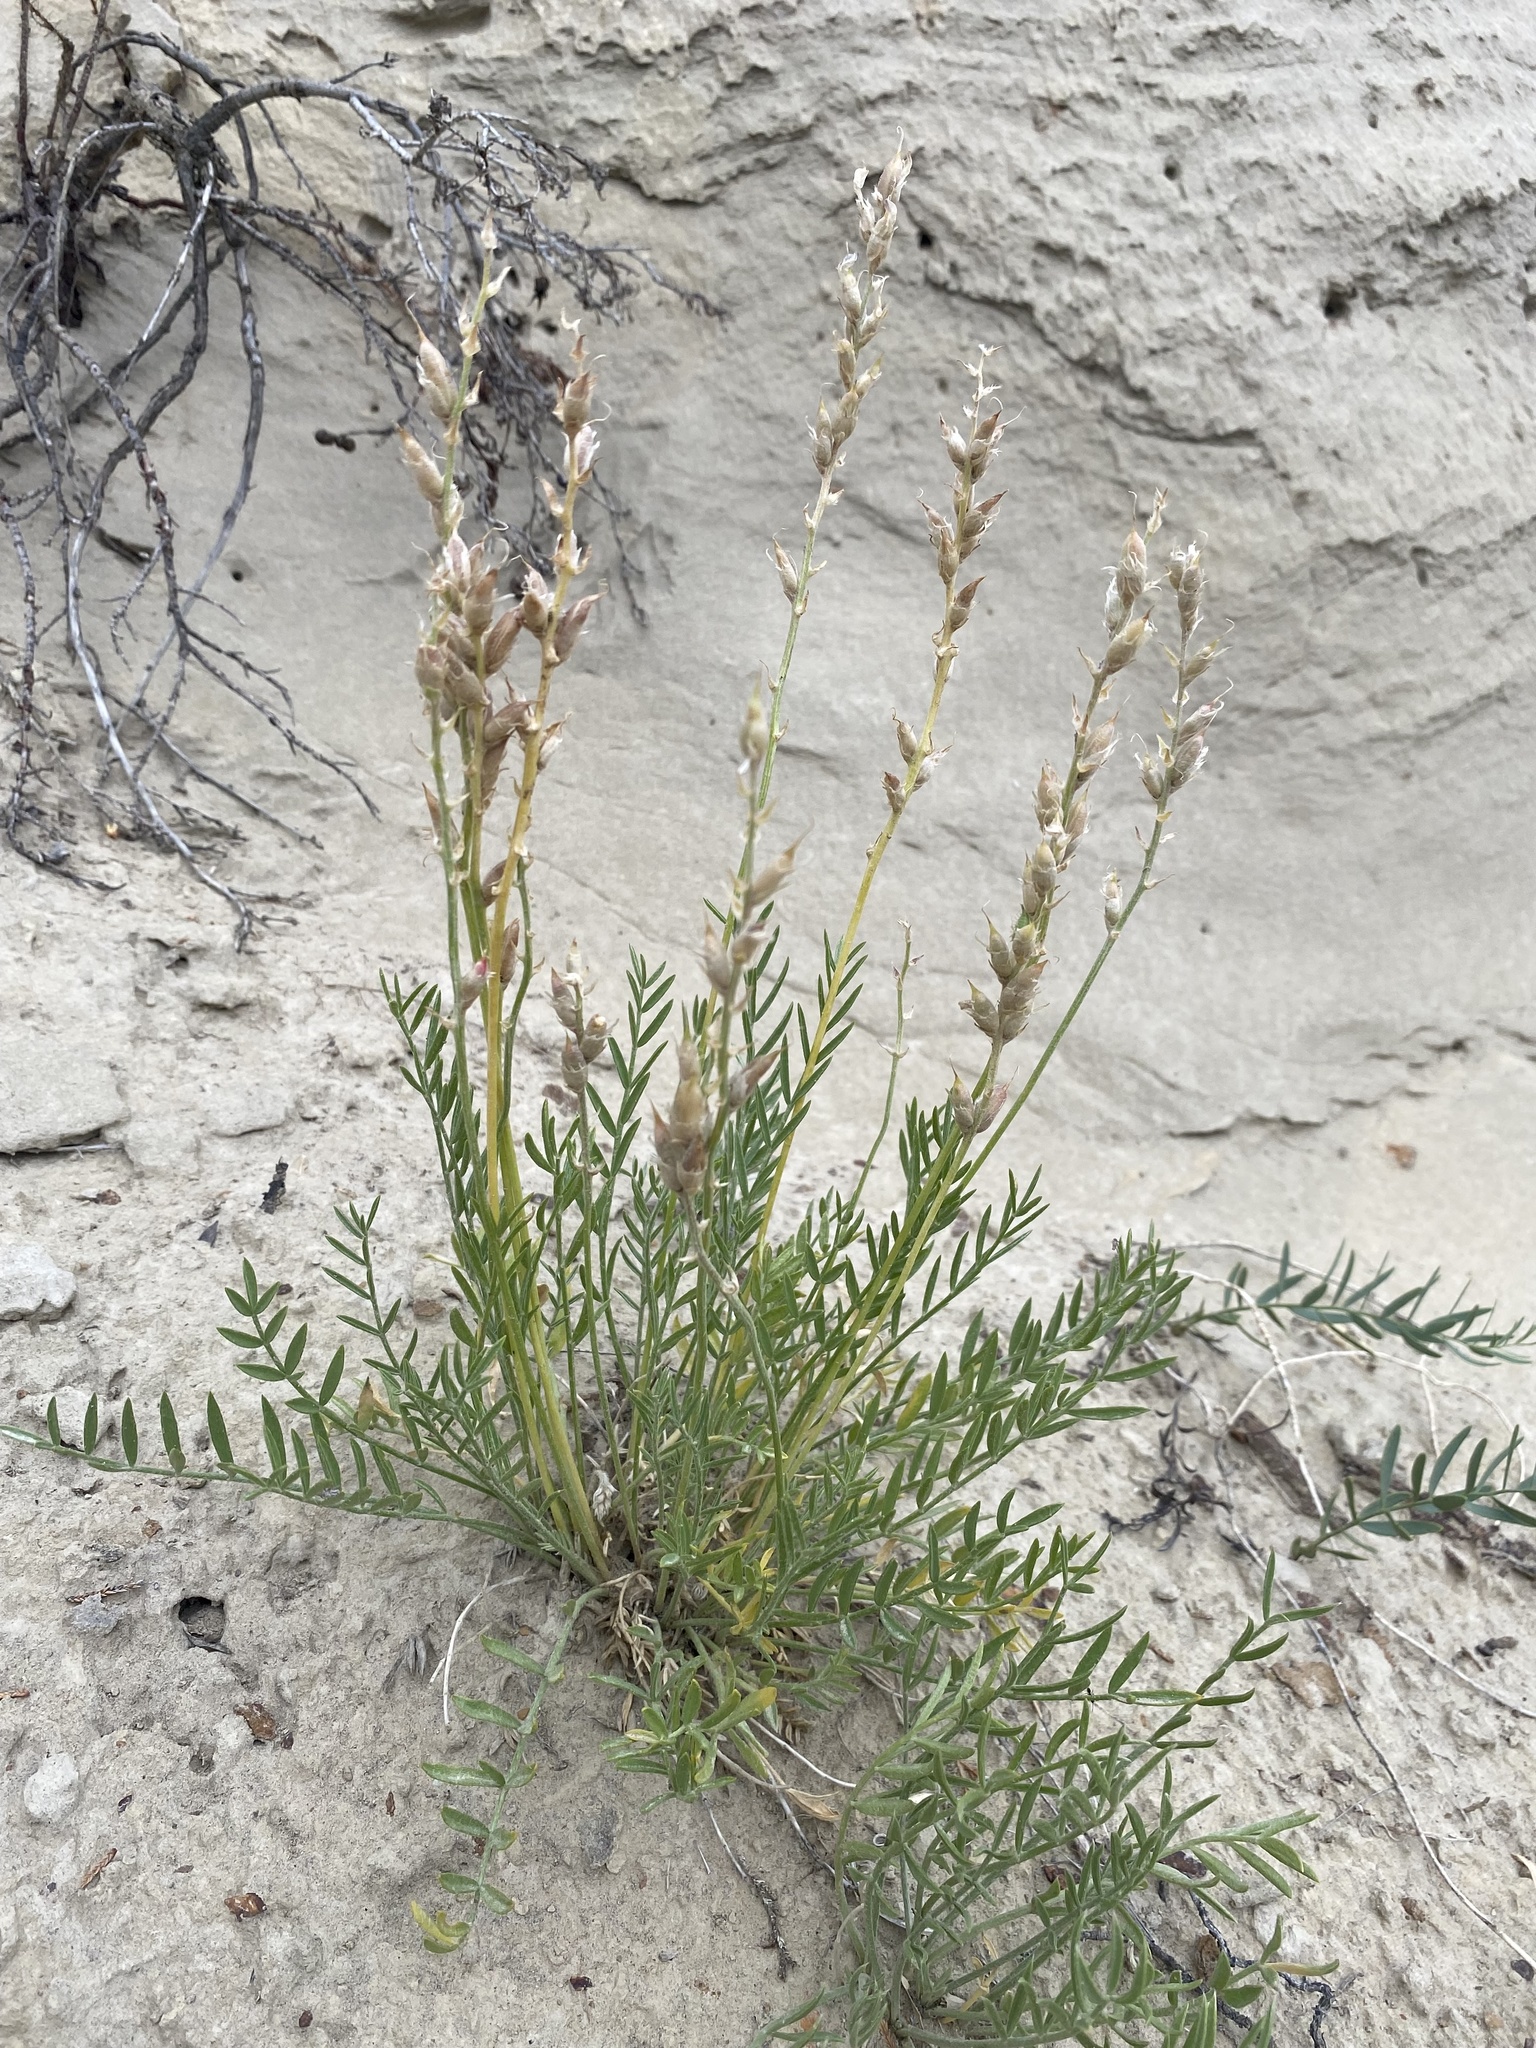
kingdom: Plantae
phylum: Tracheophyta
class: Magnoliopsida
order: Fabales
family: Fabaceae
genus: Oxytropis
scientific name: Oxytropis lambertii
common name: Purple locoweed
